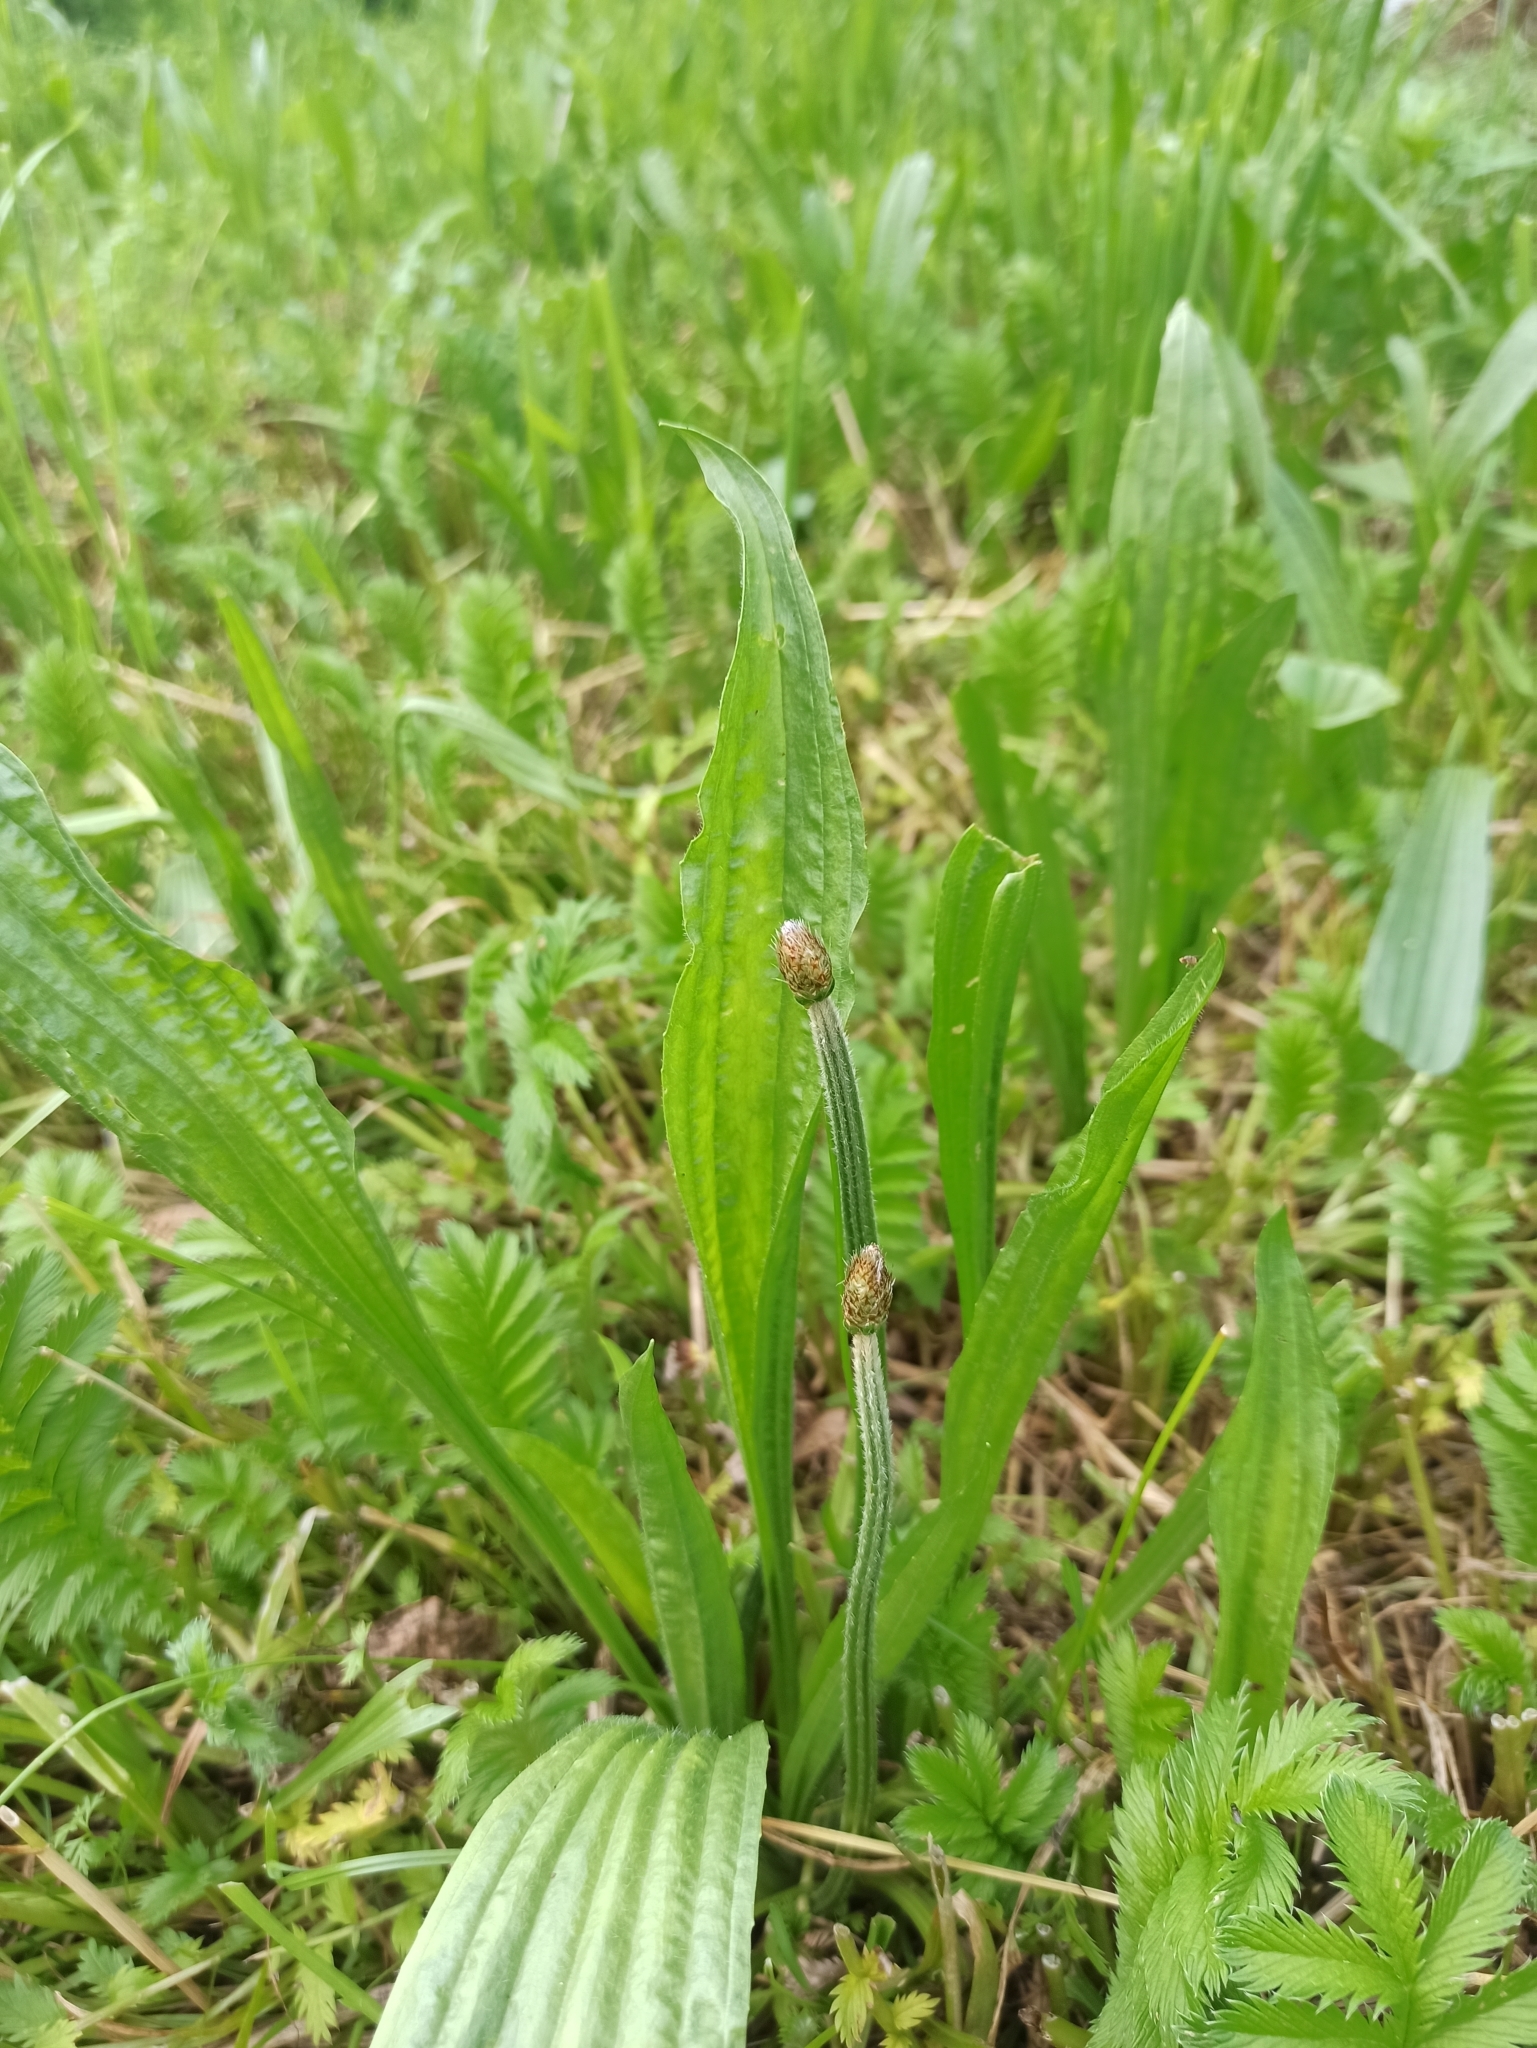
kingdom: Plantae
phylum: Tracheophyta
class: Magnoliopsida
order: Lamiales
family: Plantaginaceae
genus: Plantago
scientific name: Plantago lanceolata
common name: Ribwort plantain
